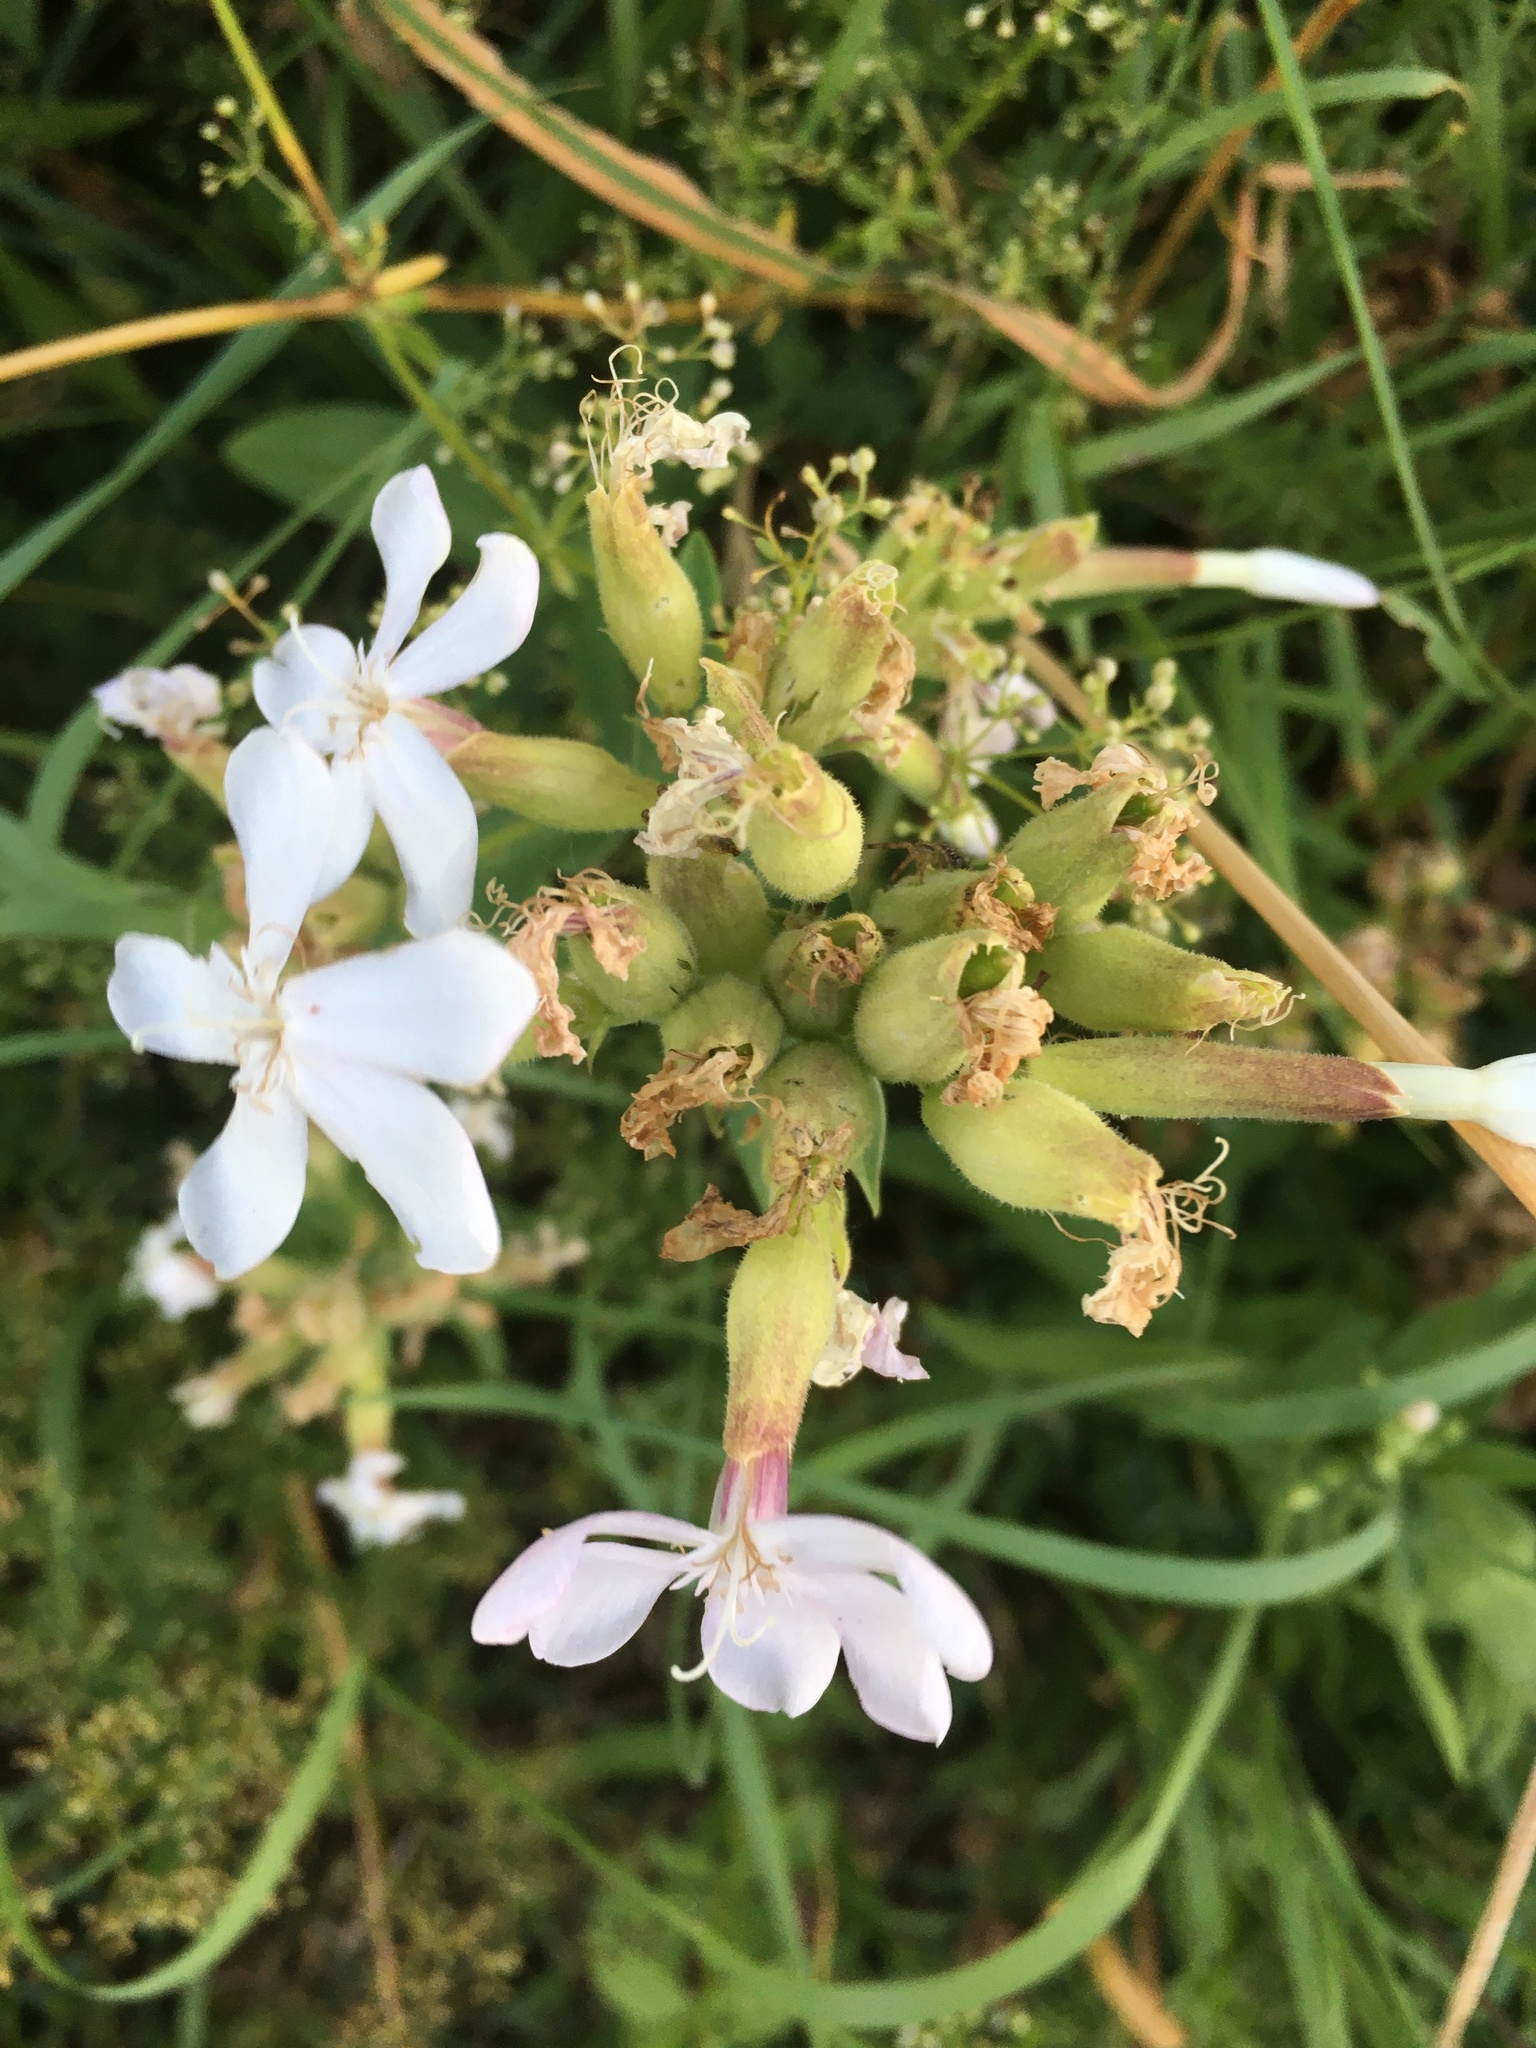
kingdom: Plantae
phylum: Tracheophyta
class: Magnoliopsida
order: Caryophyllales
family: Caryophyllaceae
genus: Saponaria
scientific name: Saponaria officinalis
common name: Soapwort
